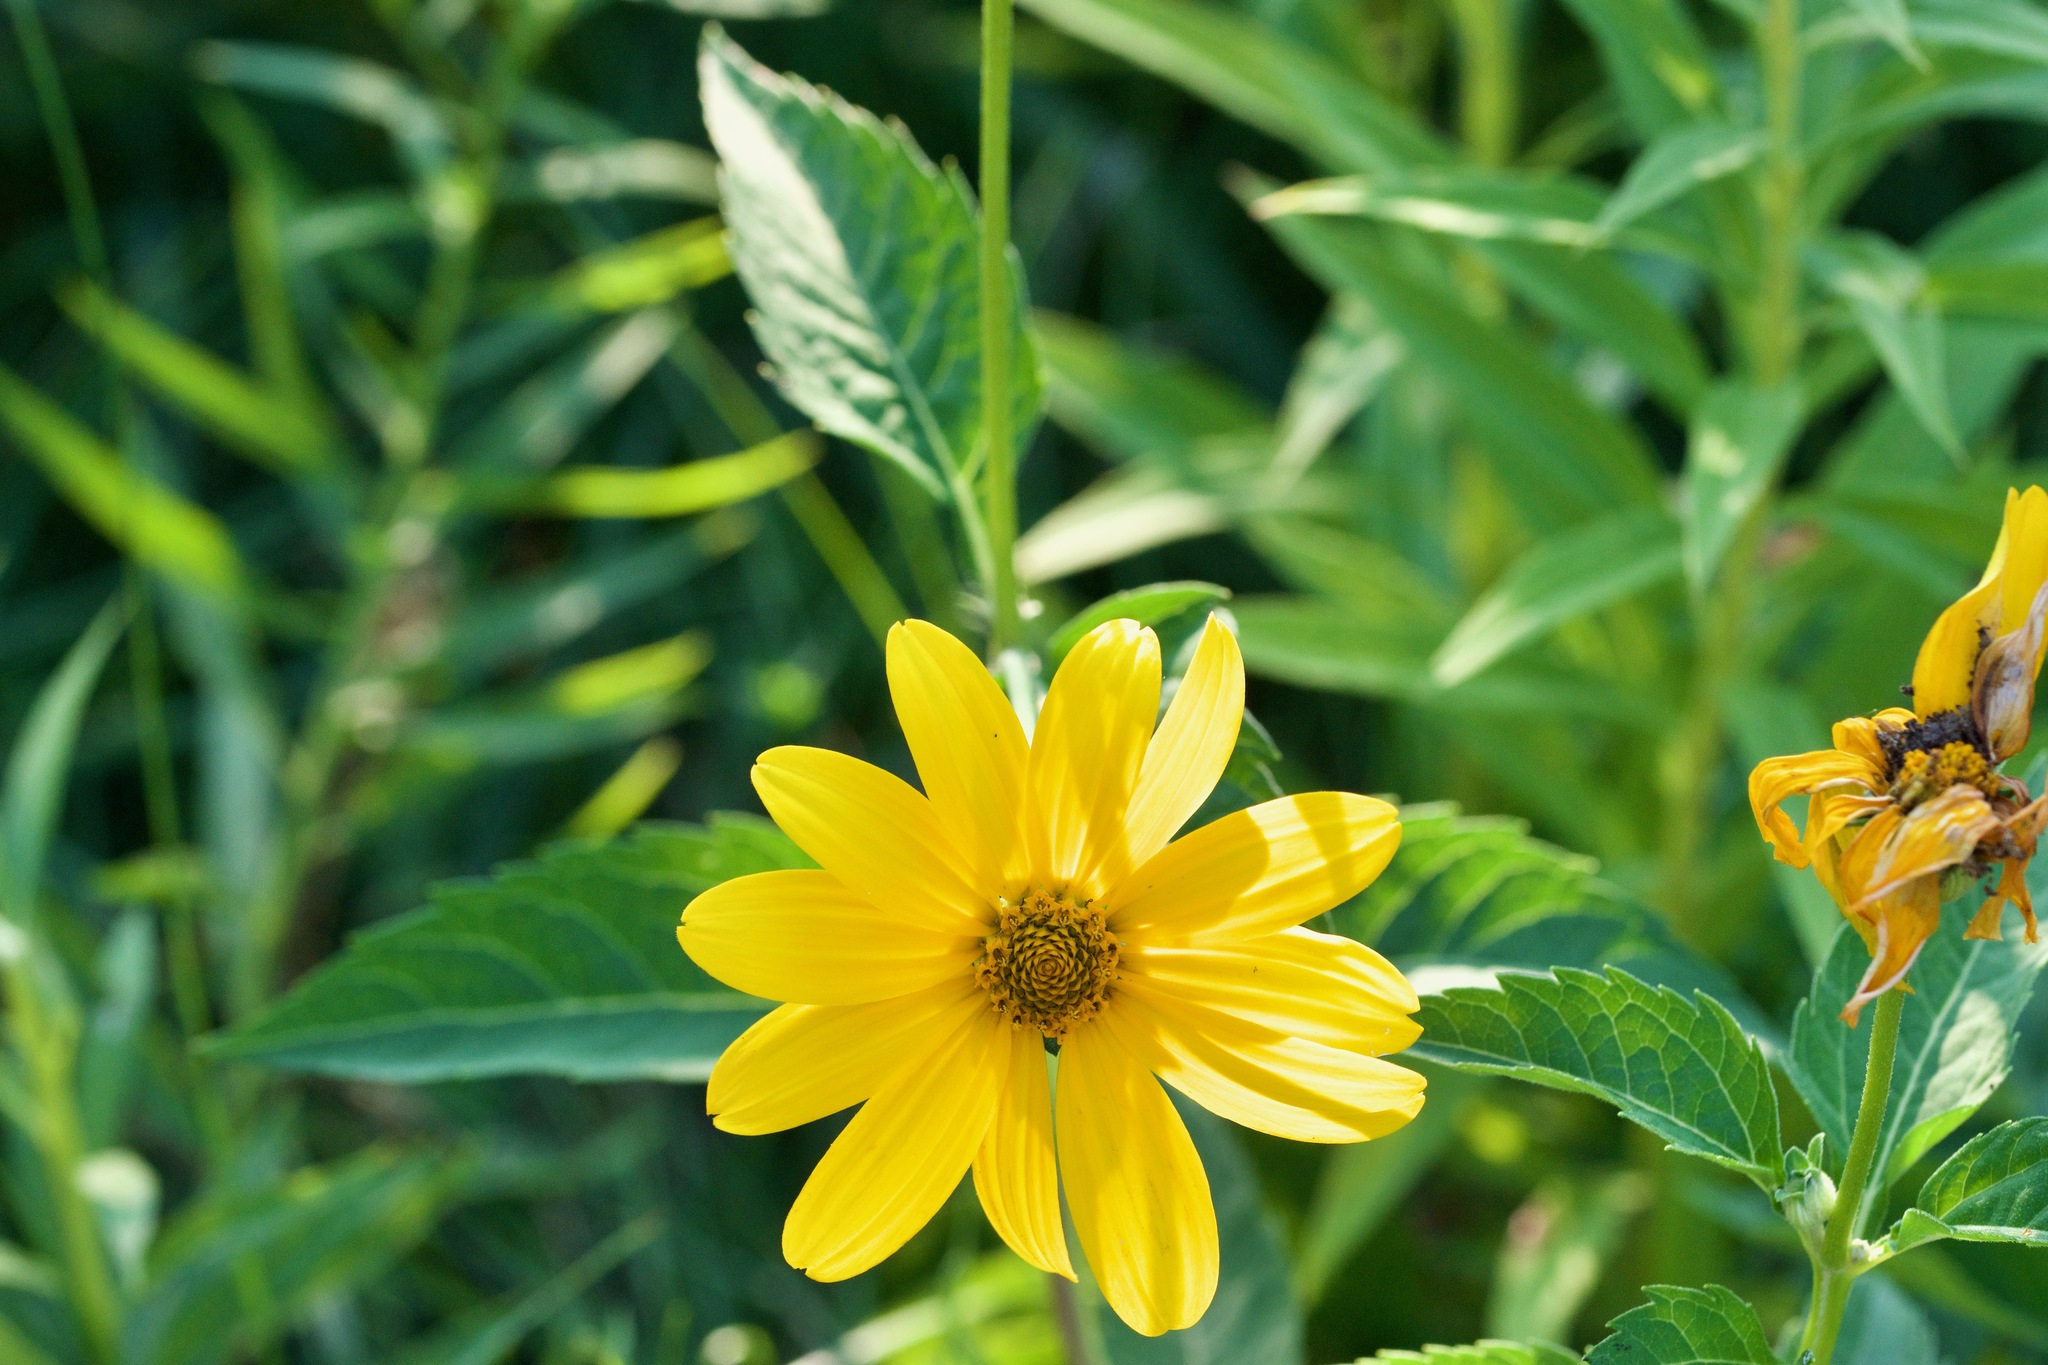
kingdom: Plantae
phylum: Tracheophyta
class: Magnoliopsida
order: Asterales
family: Asteraceae
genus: Heliopsis
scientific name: Heliopsis helianthoides
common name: False sunflower
